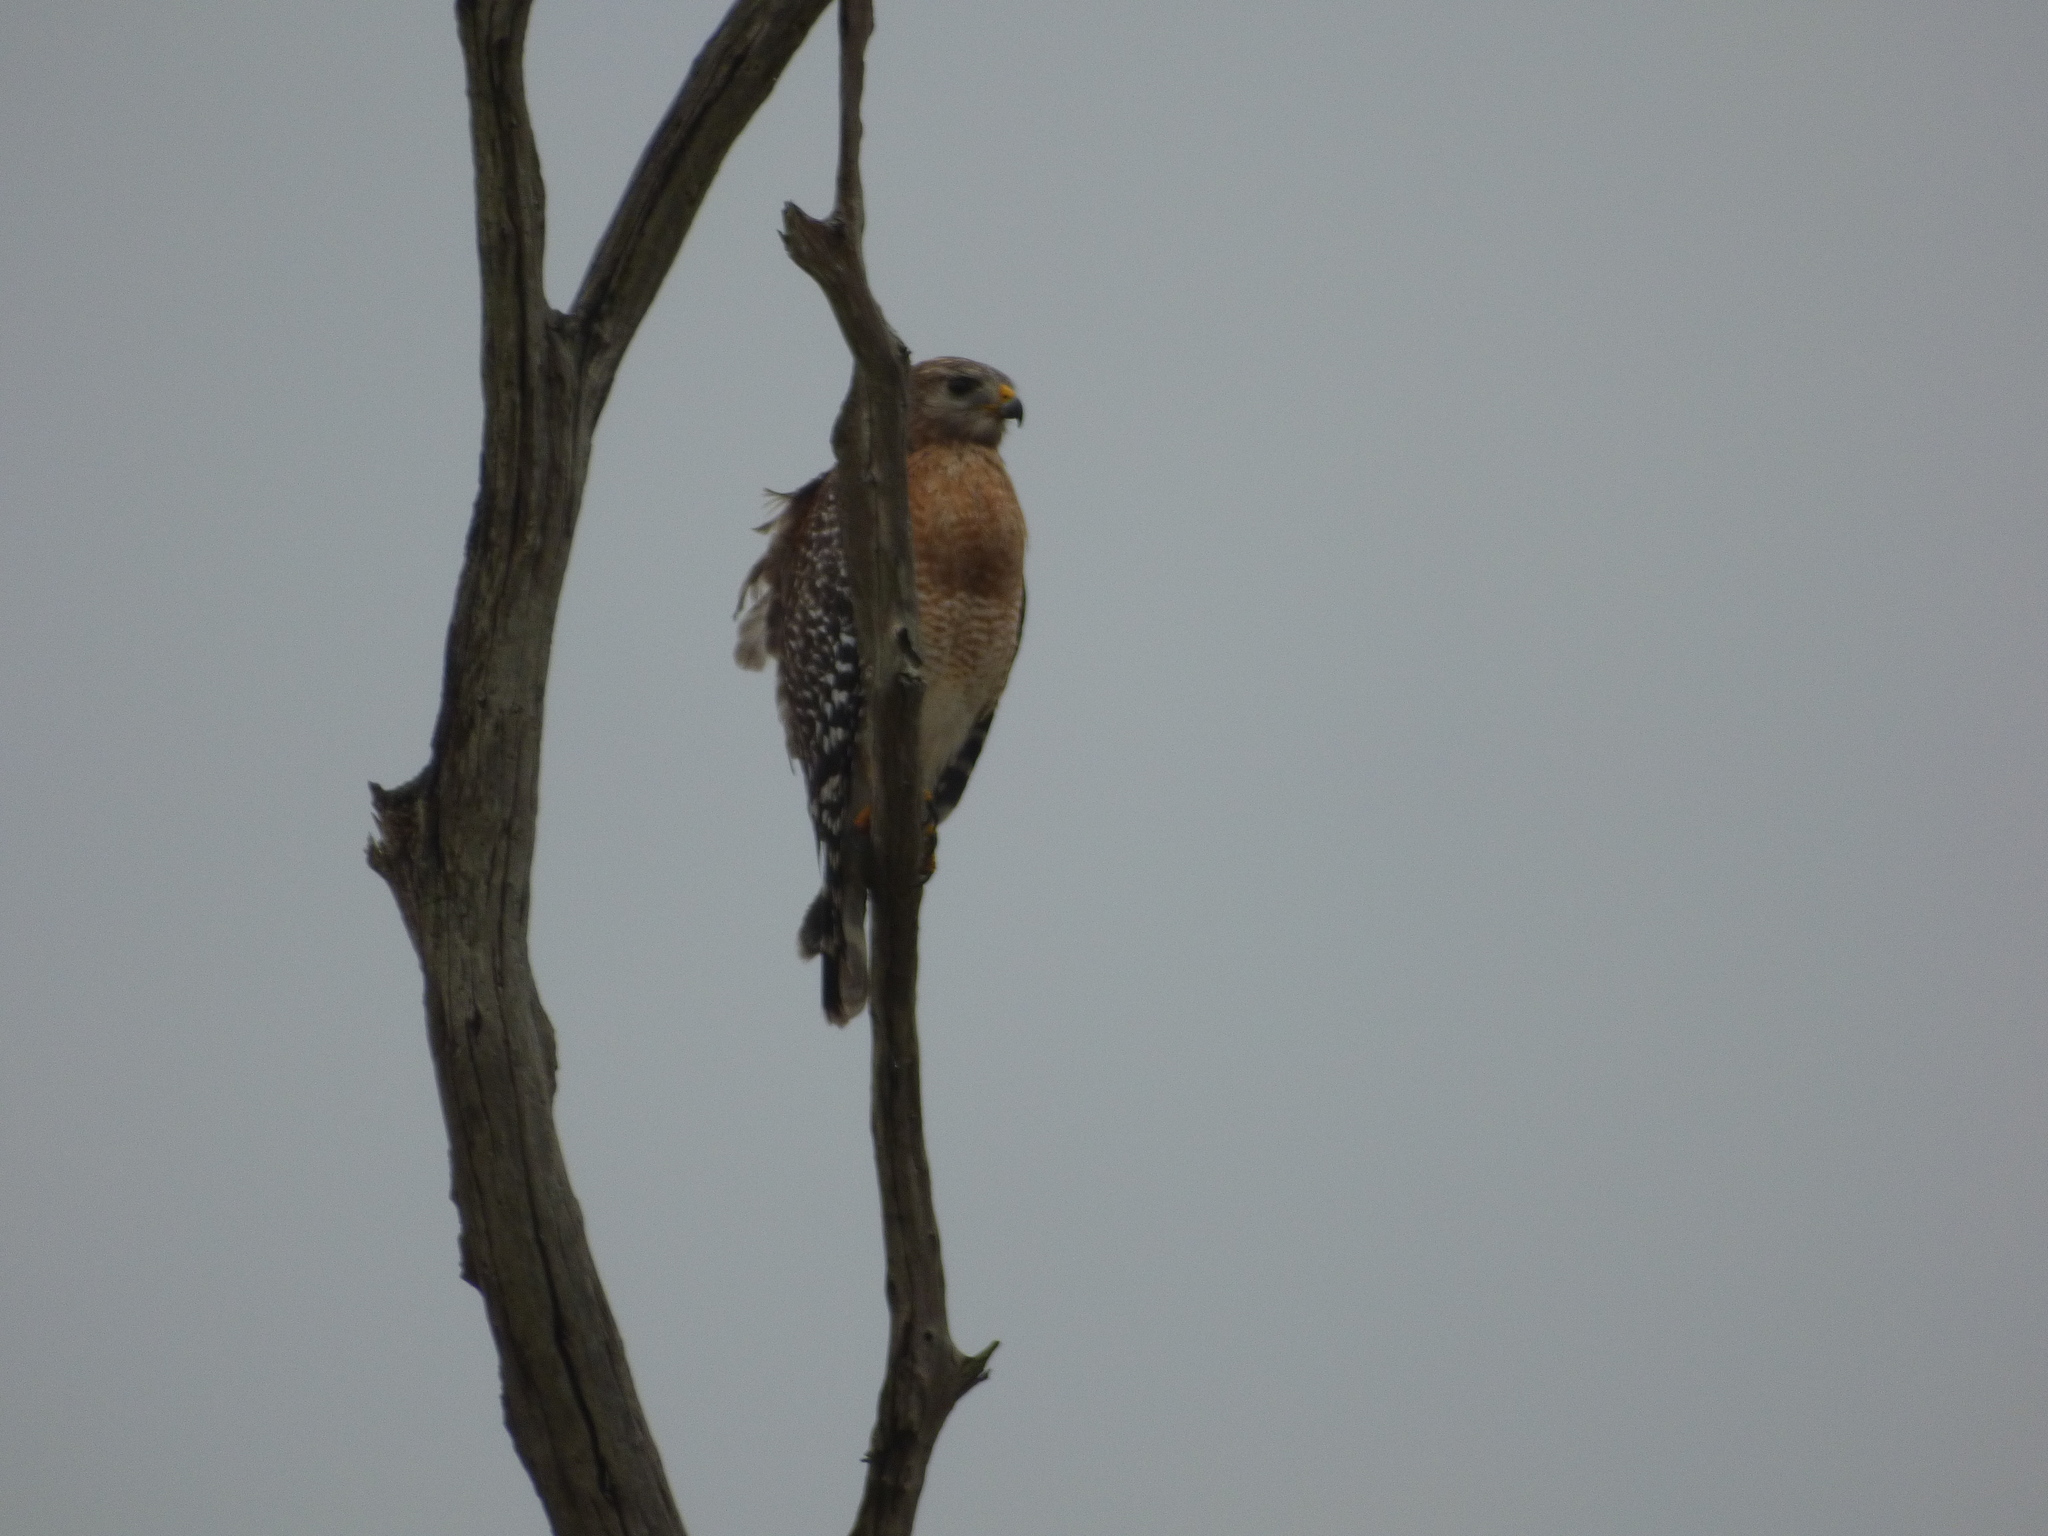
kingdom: Animalia
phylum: Chordata
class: Aves
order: Accipitriformes
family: Accipitridae
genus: Buteo
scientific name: Buteo lineatus
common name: Red-shouldered hawk
